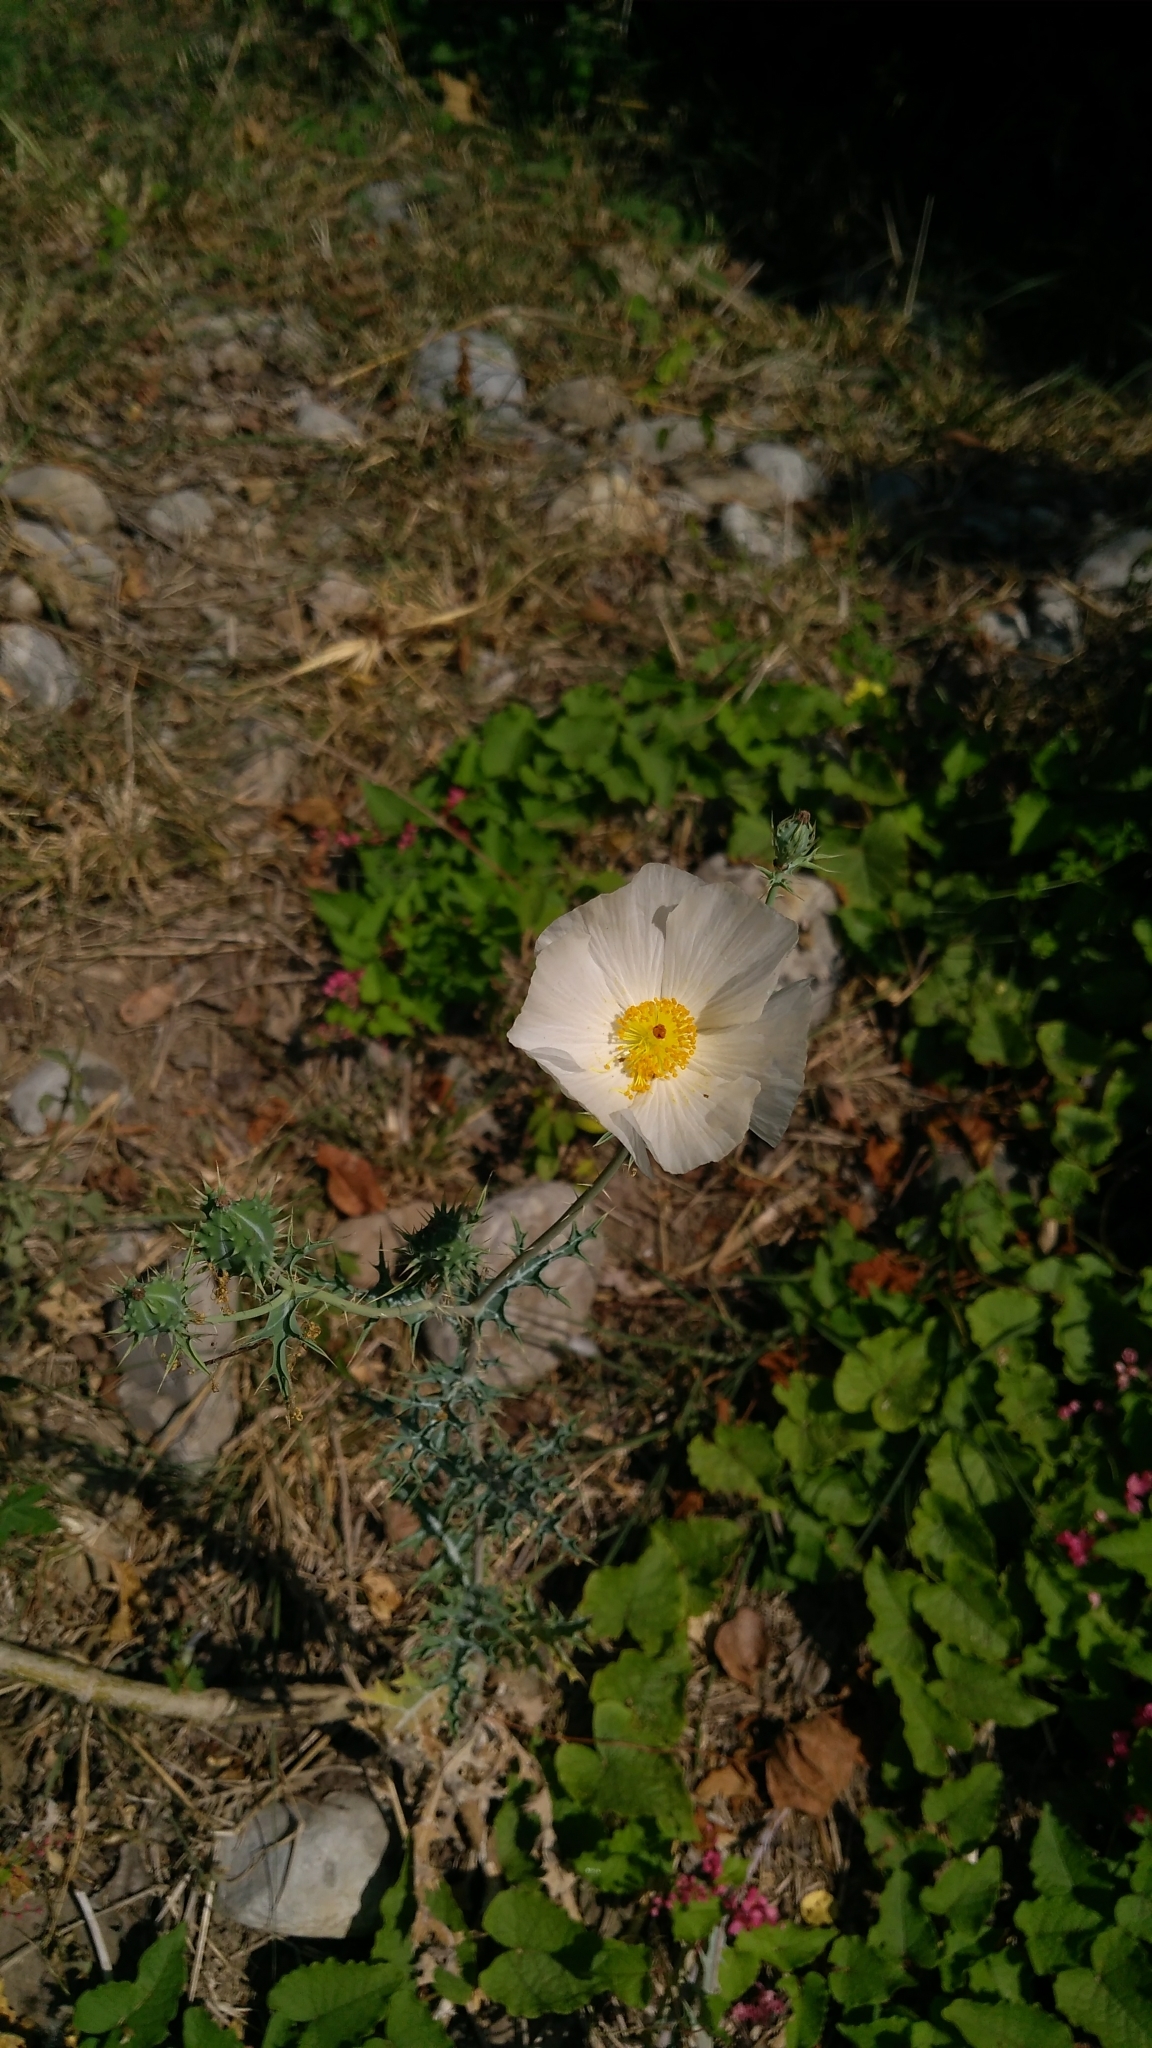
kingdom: Plantae
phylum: Tracheophyta
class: Magnoliopsida
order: Ranunculales
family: Papaveraceae
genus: Argemone
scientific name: Argemone grandiflora
